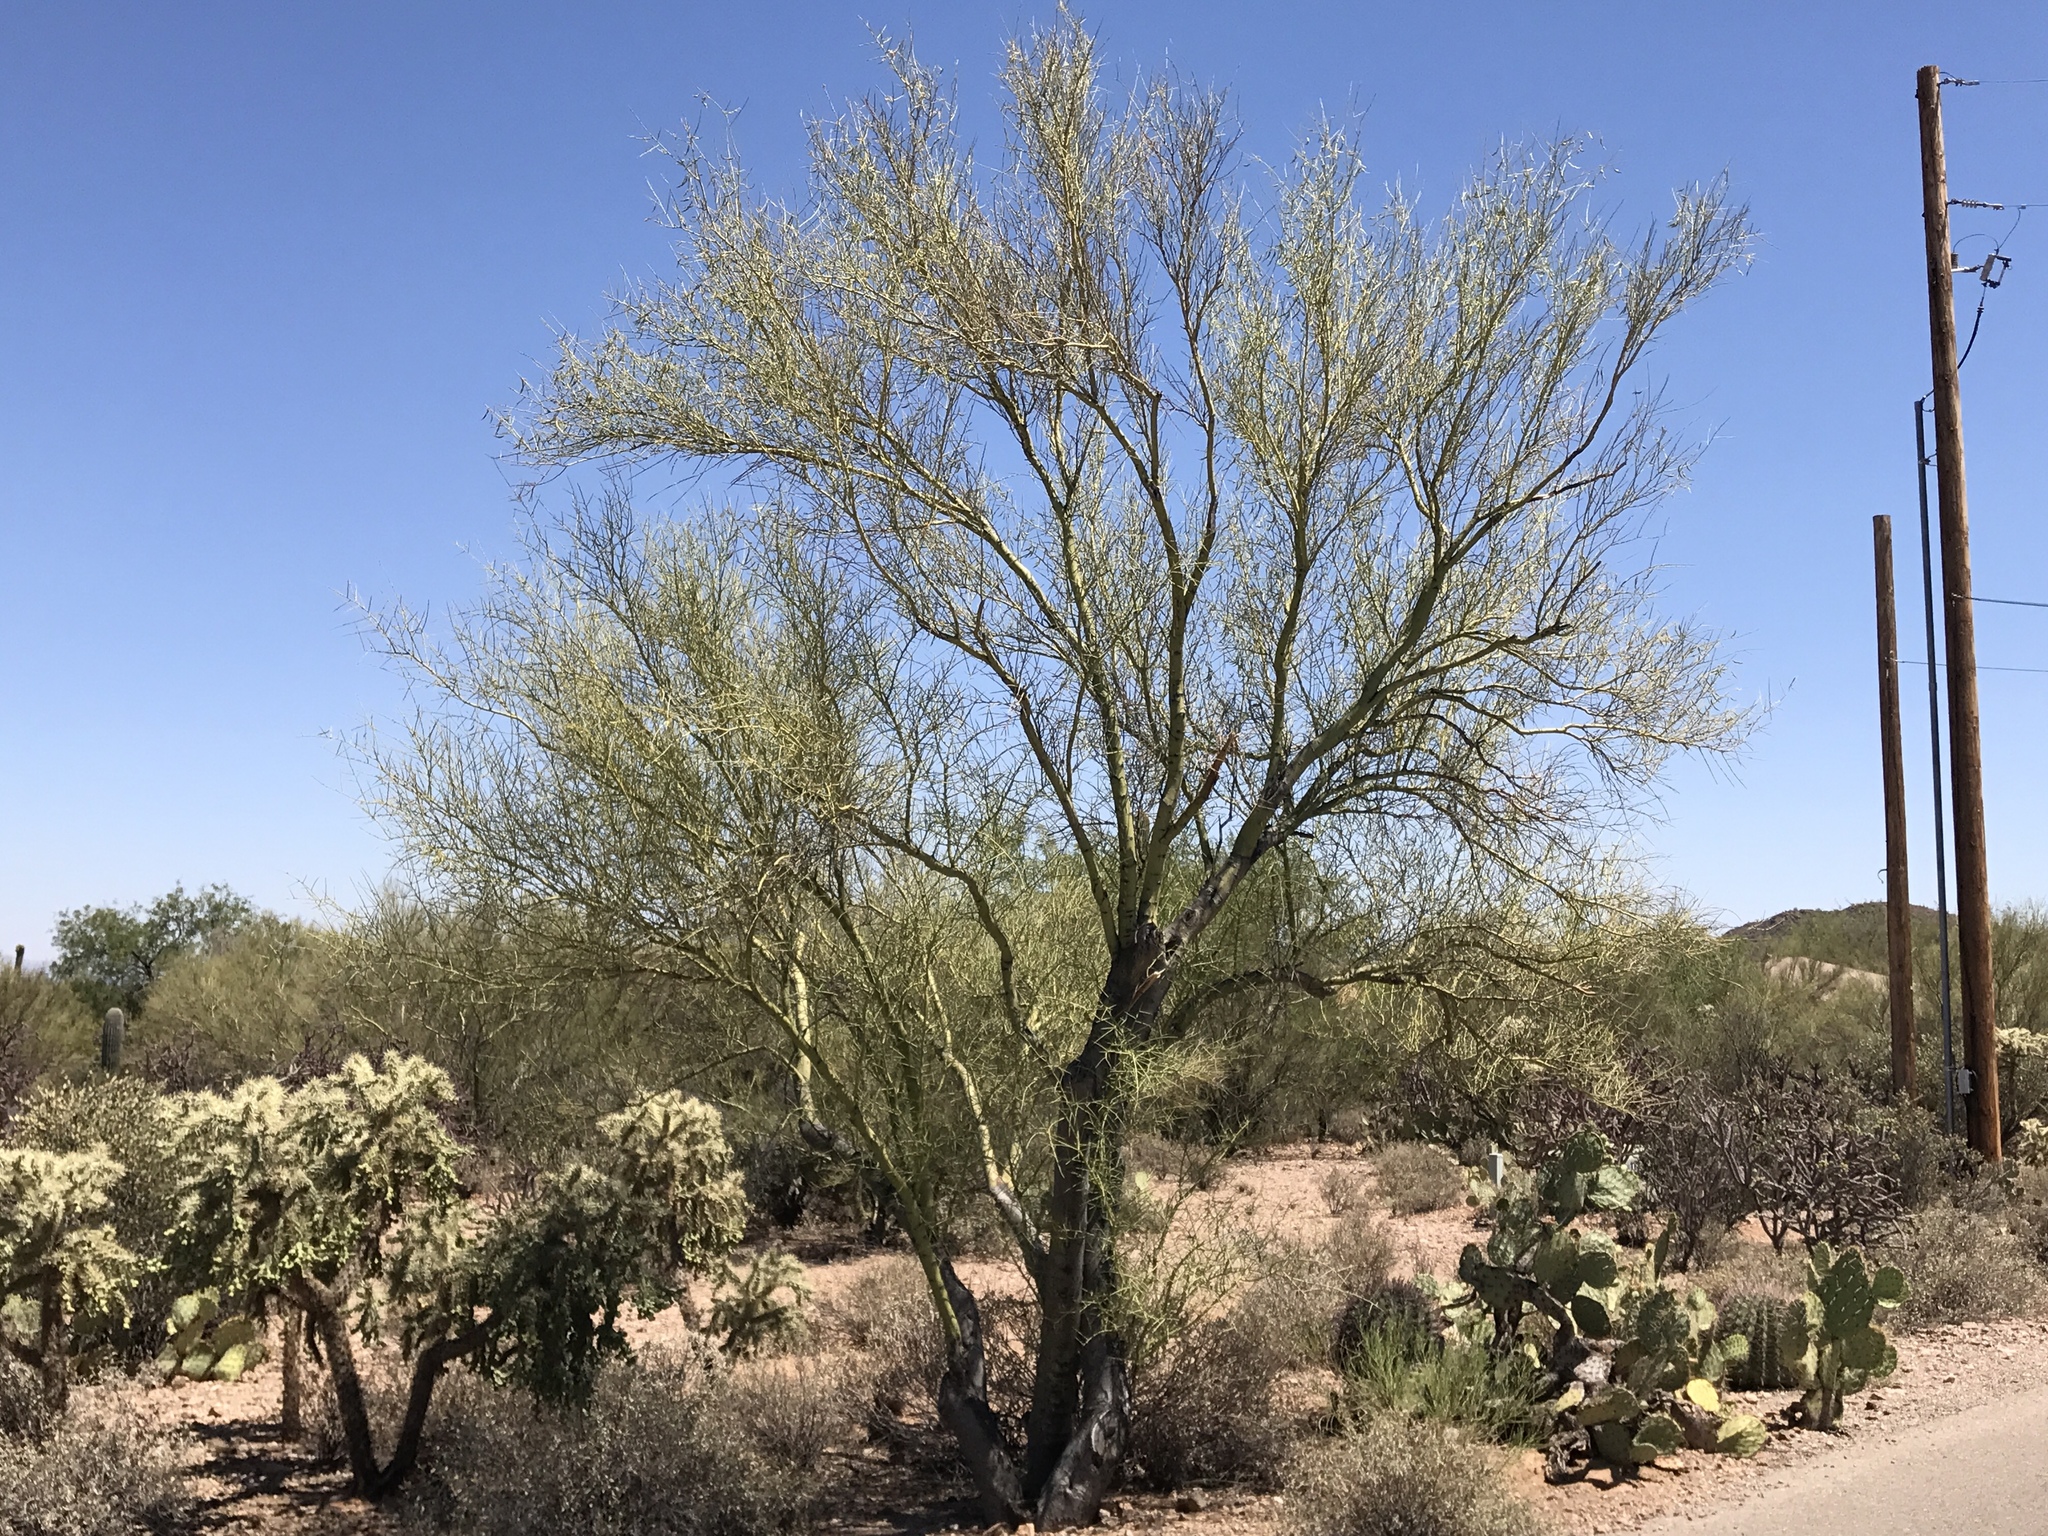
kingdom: Plantae
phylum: Tracheophyta
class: Magnoliopsida
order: Fabales
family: Fabaceae
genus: Parkinsonia
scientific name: Parkinsonia microphylla
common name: Yellow paloverde
